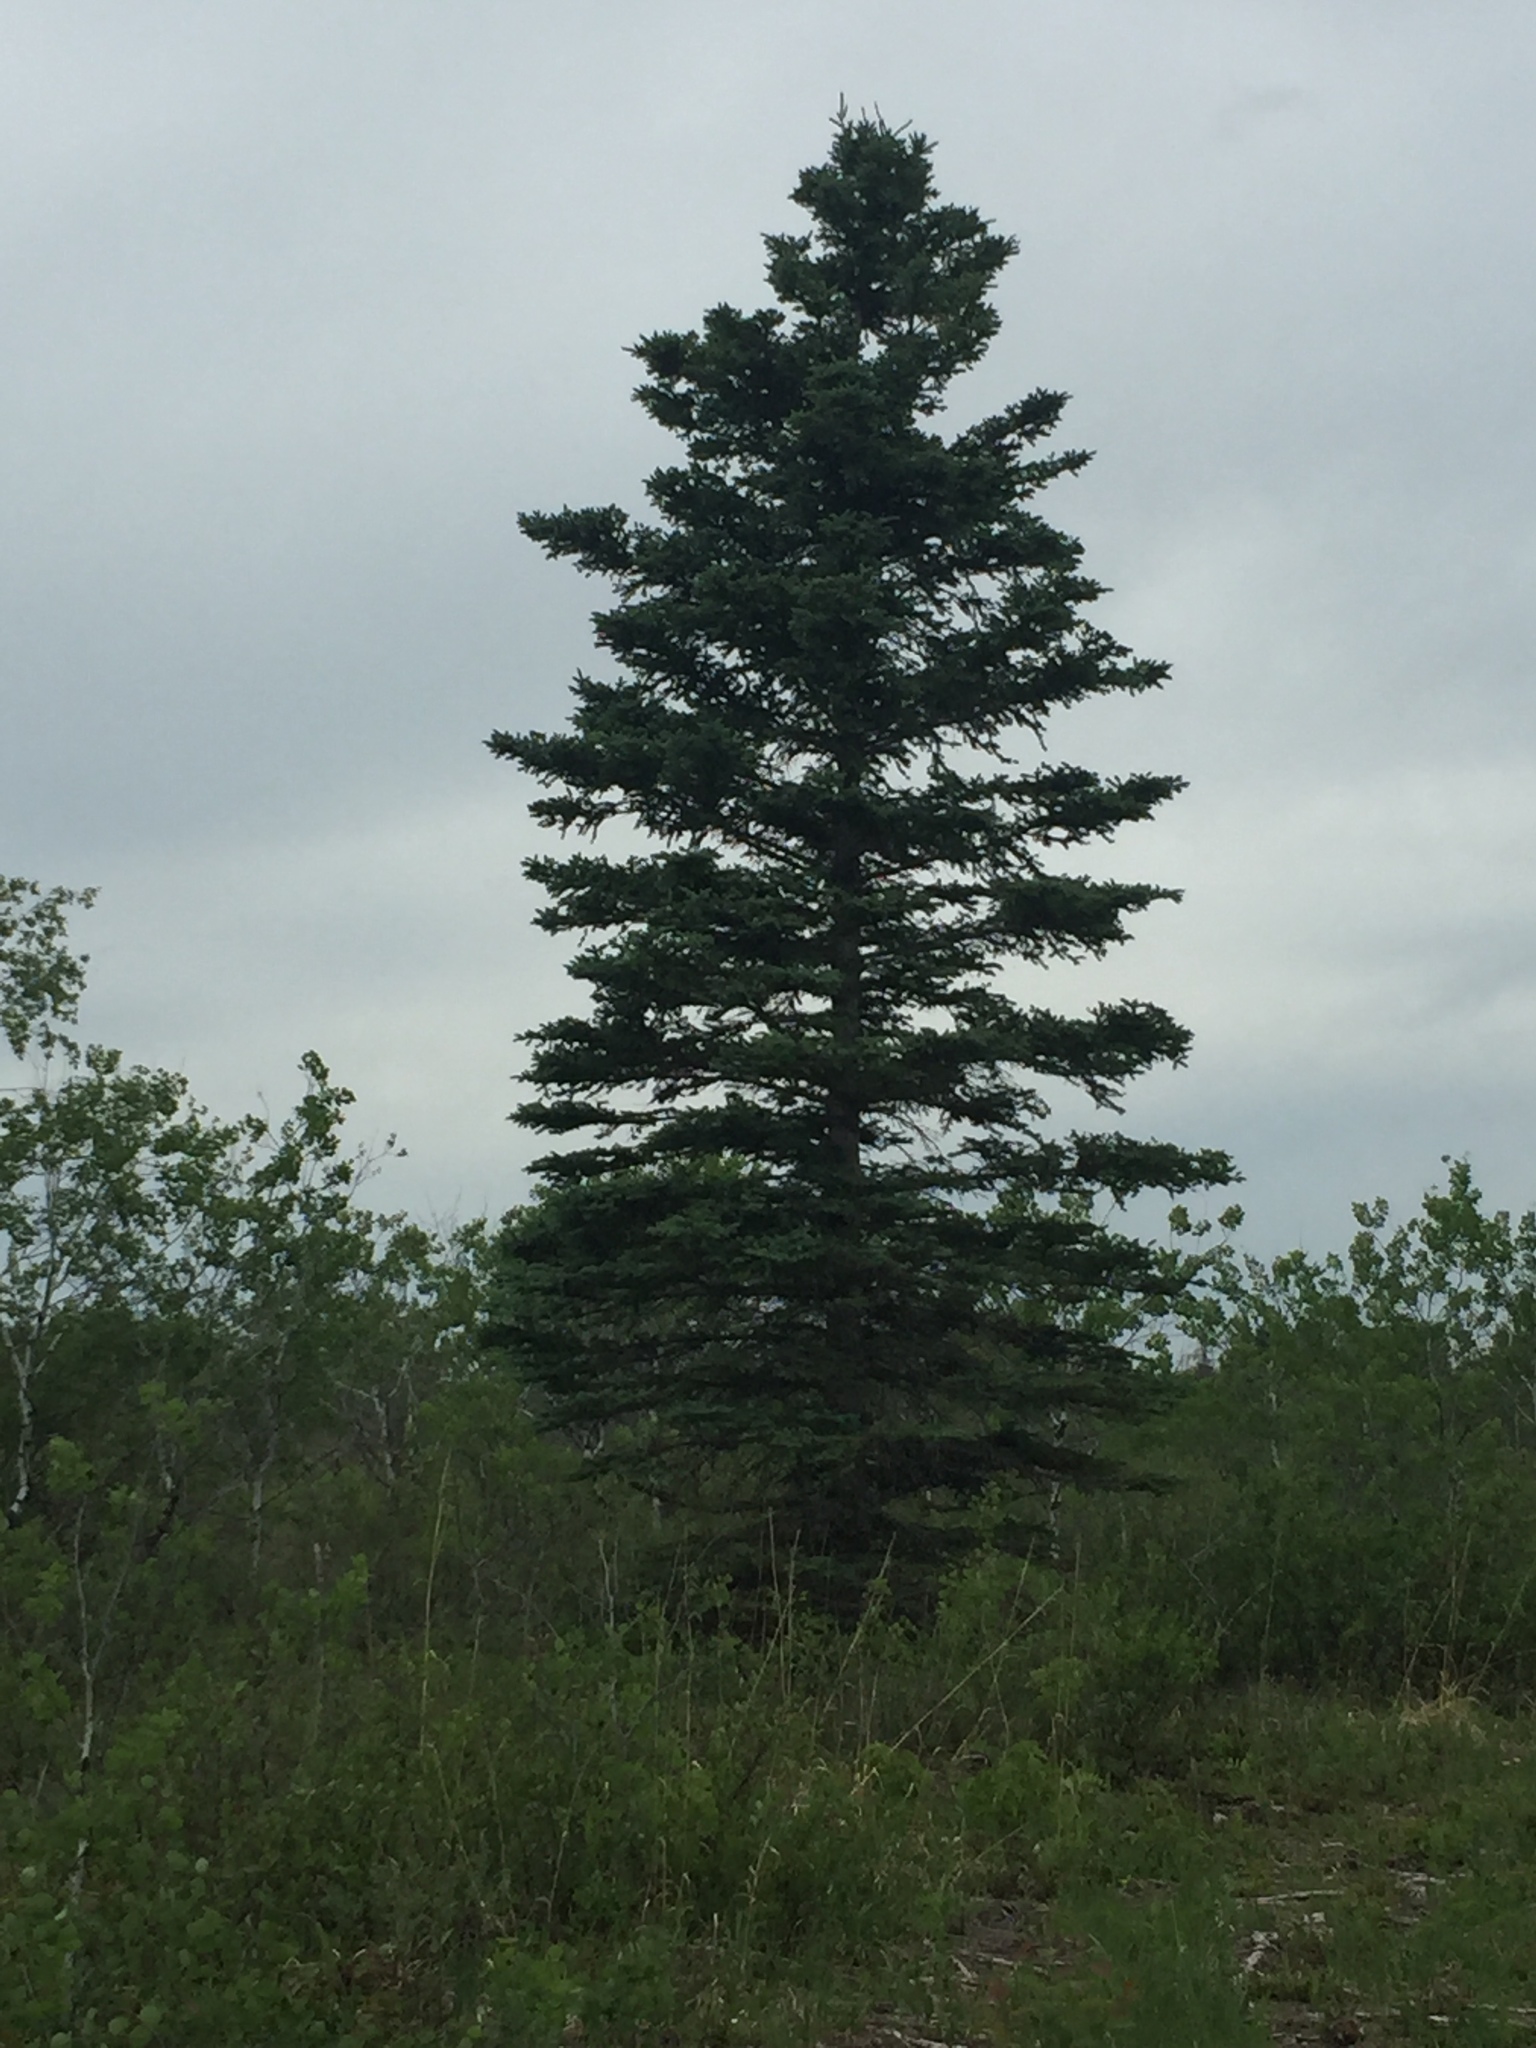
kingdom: Plantae
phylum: Tracheophyta
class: Pinopsida
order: Pinales
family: Pinaceae
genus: Picea
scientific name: Picea glauca
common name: White spruce
